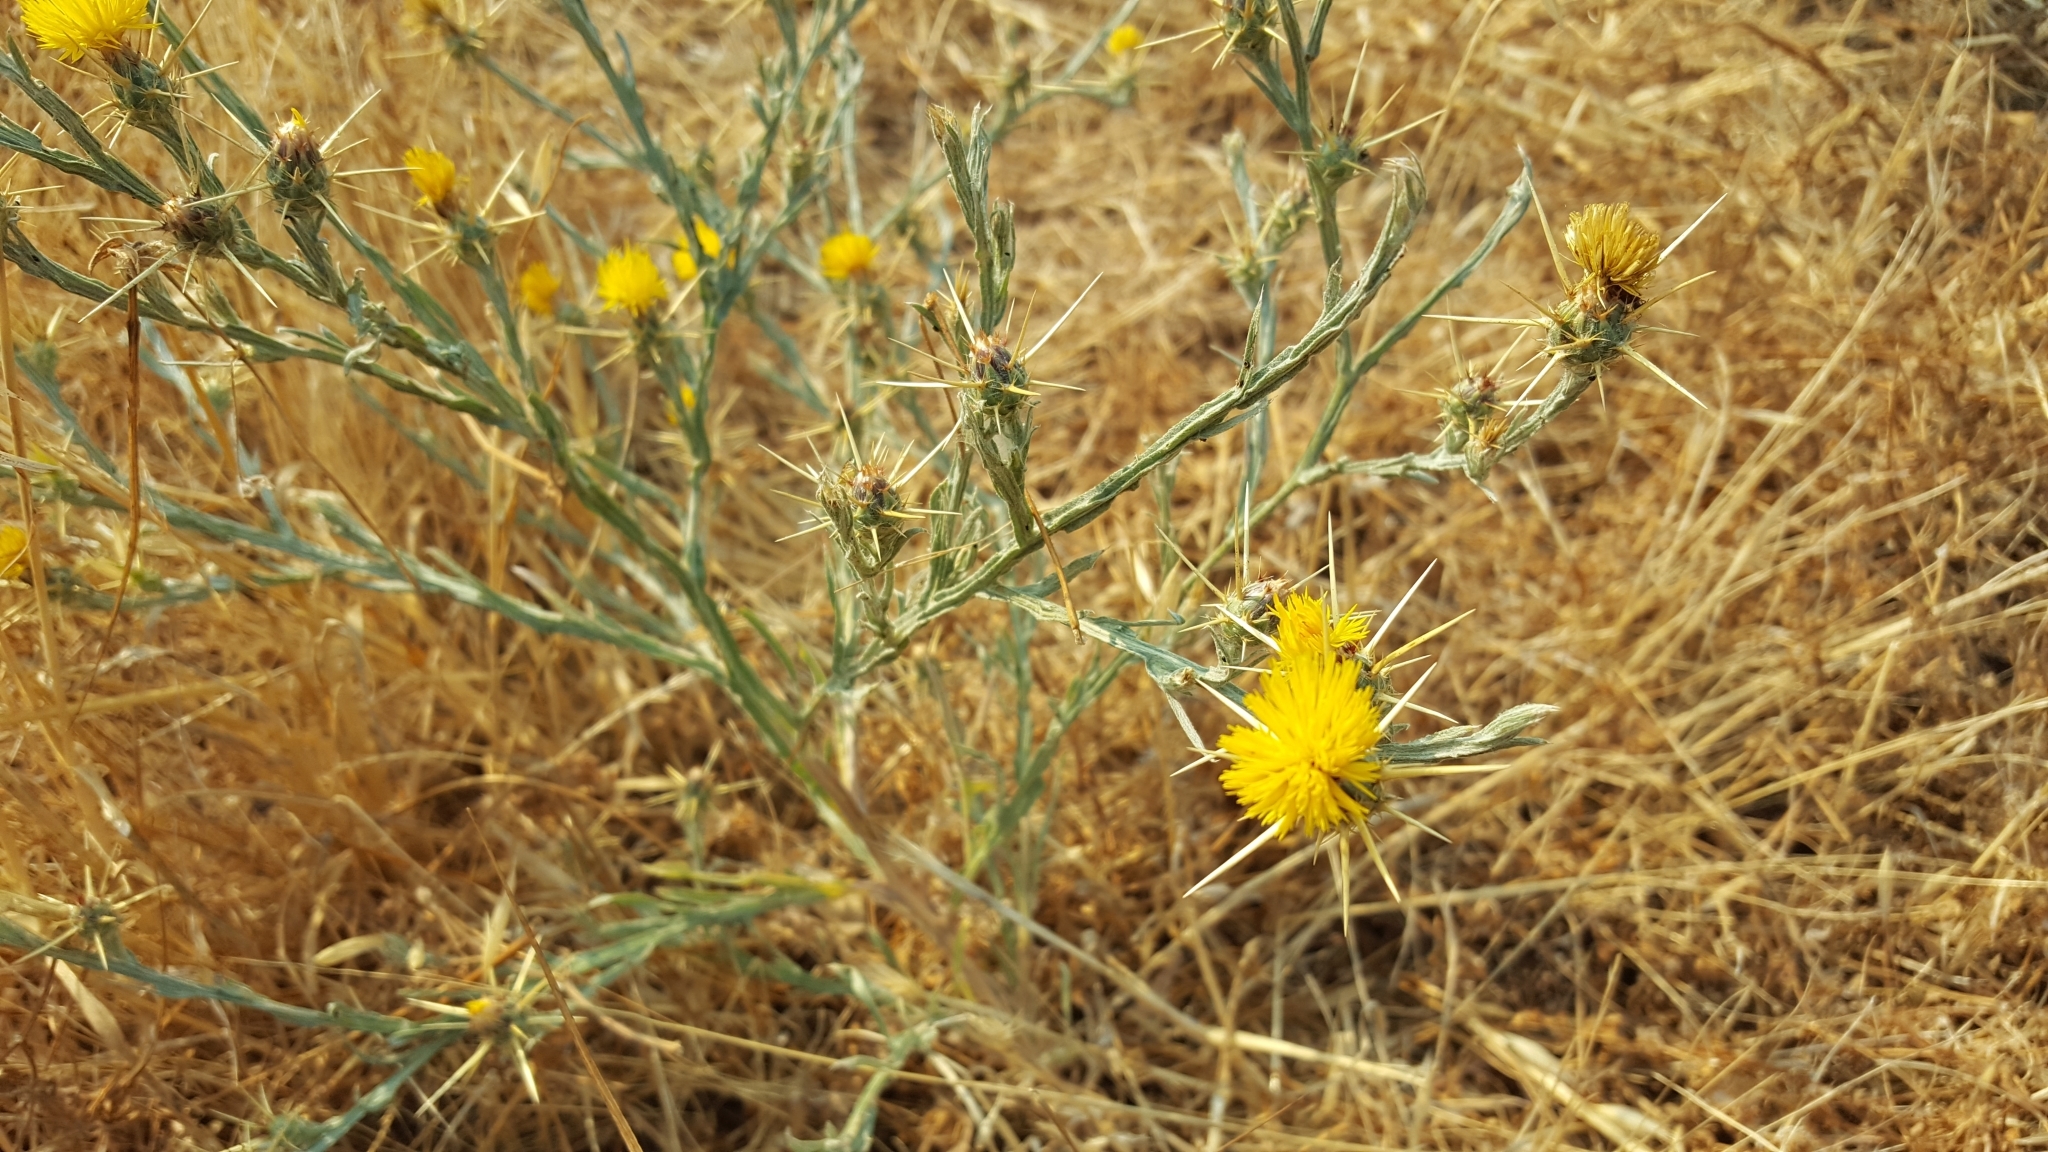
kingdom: Plantae
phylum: Tracheophyta
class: Magnoliopsida
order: Asterales
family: Asteraceae
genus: Centaurea
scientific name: Centaurea solstitialis
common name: Yellow star-thistle
